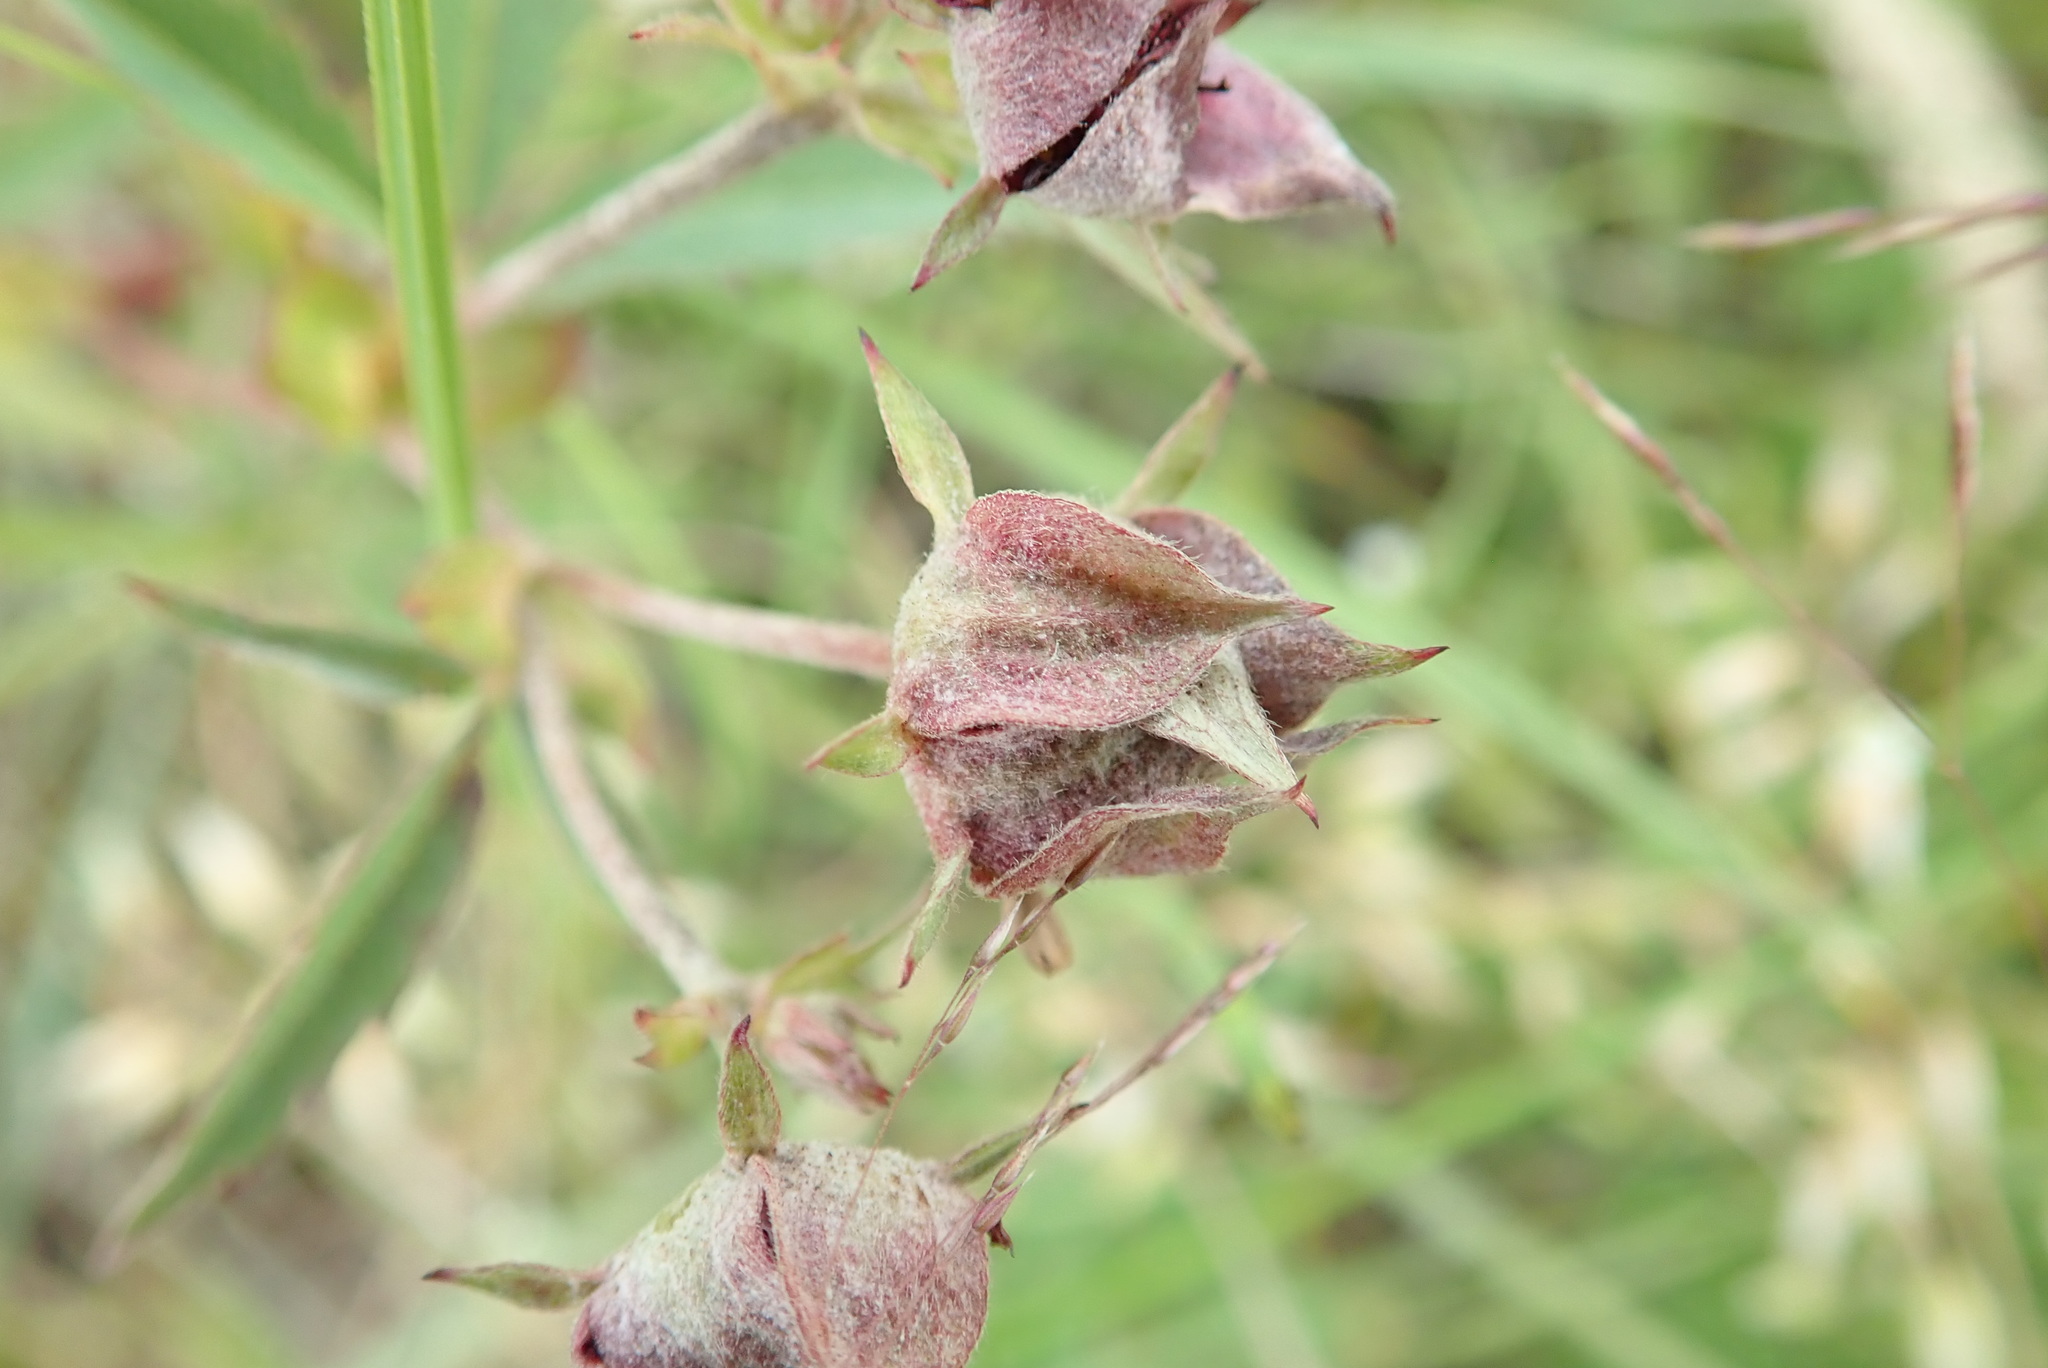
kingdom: Plantae
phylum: Tracheophyta
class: Magnoliopsida
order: Rosales
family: Rosaceae
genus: Comarum
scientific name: Comarum palustre
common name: Marsh cinquefoil
